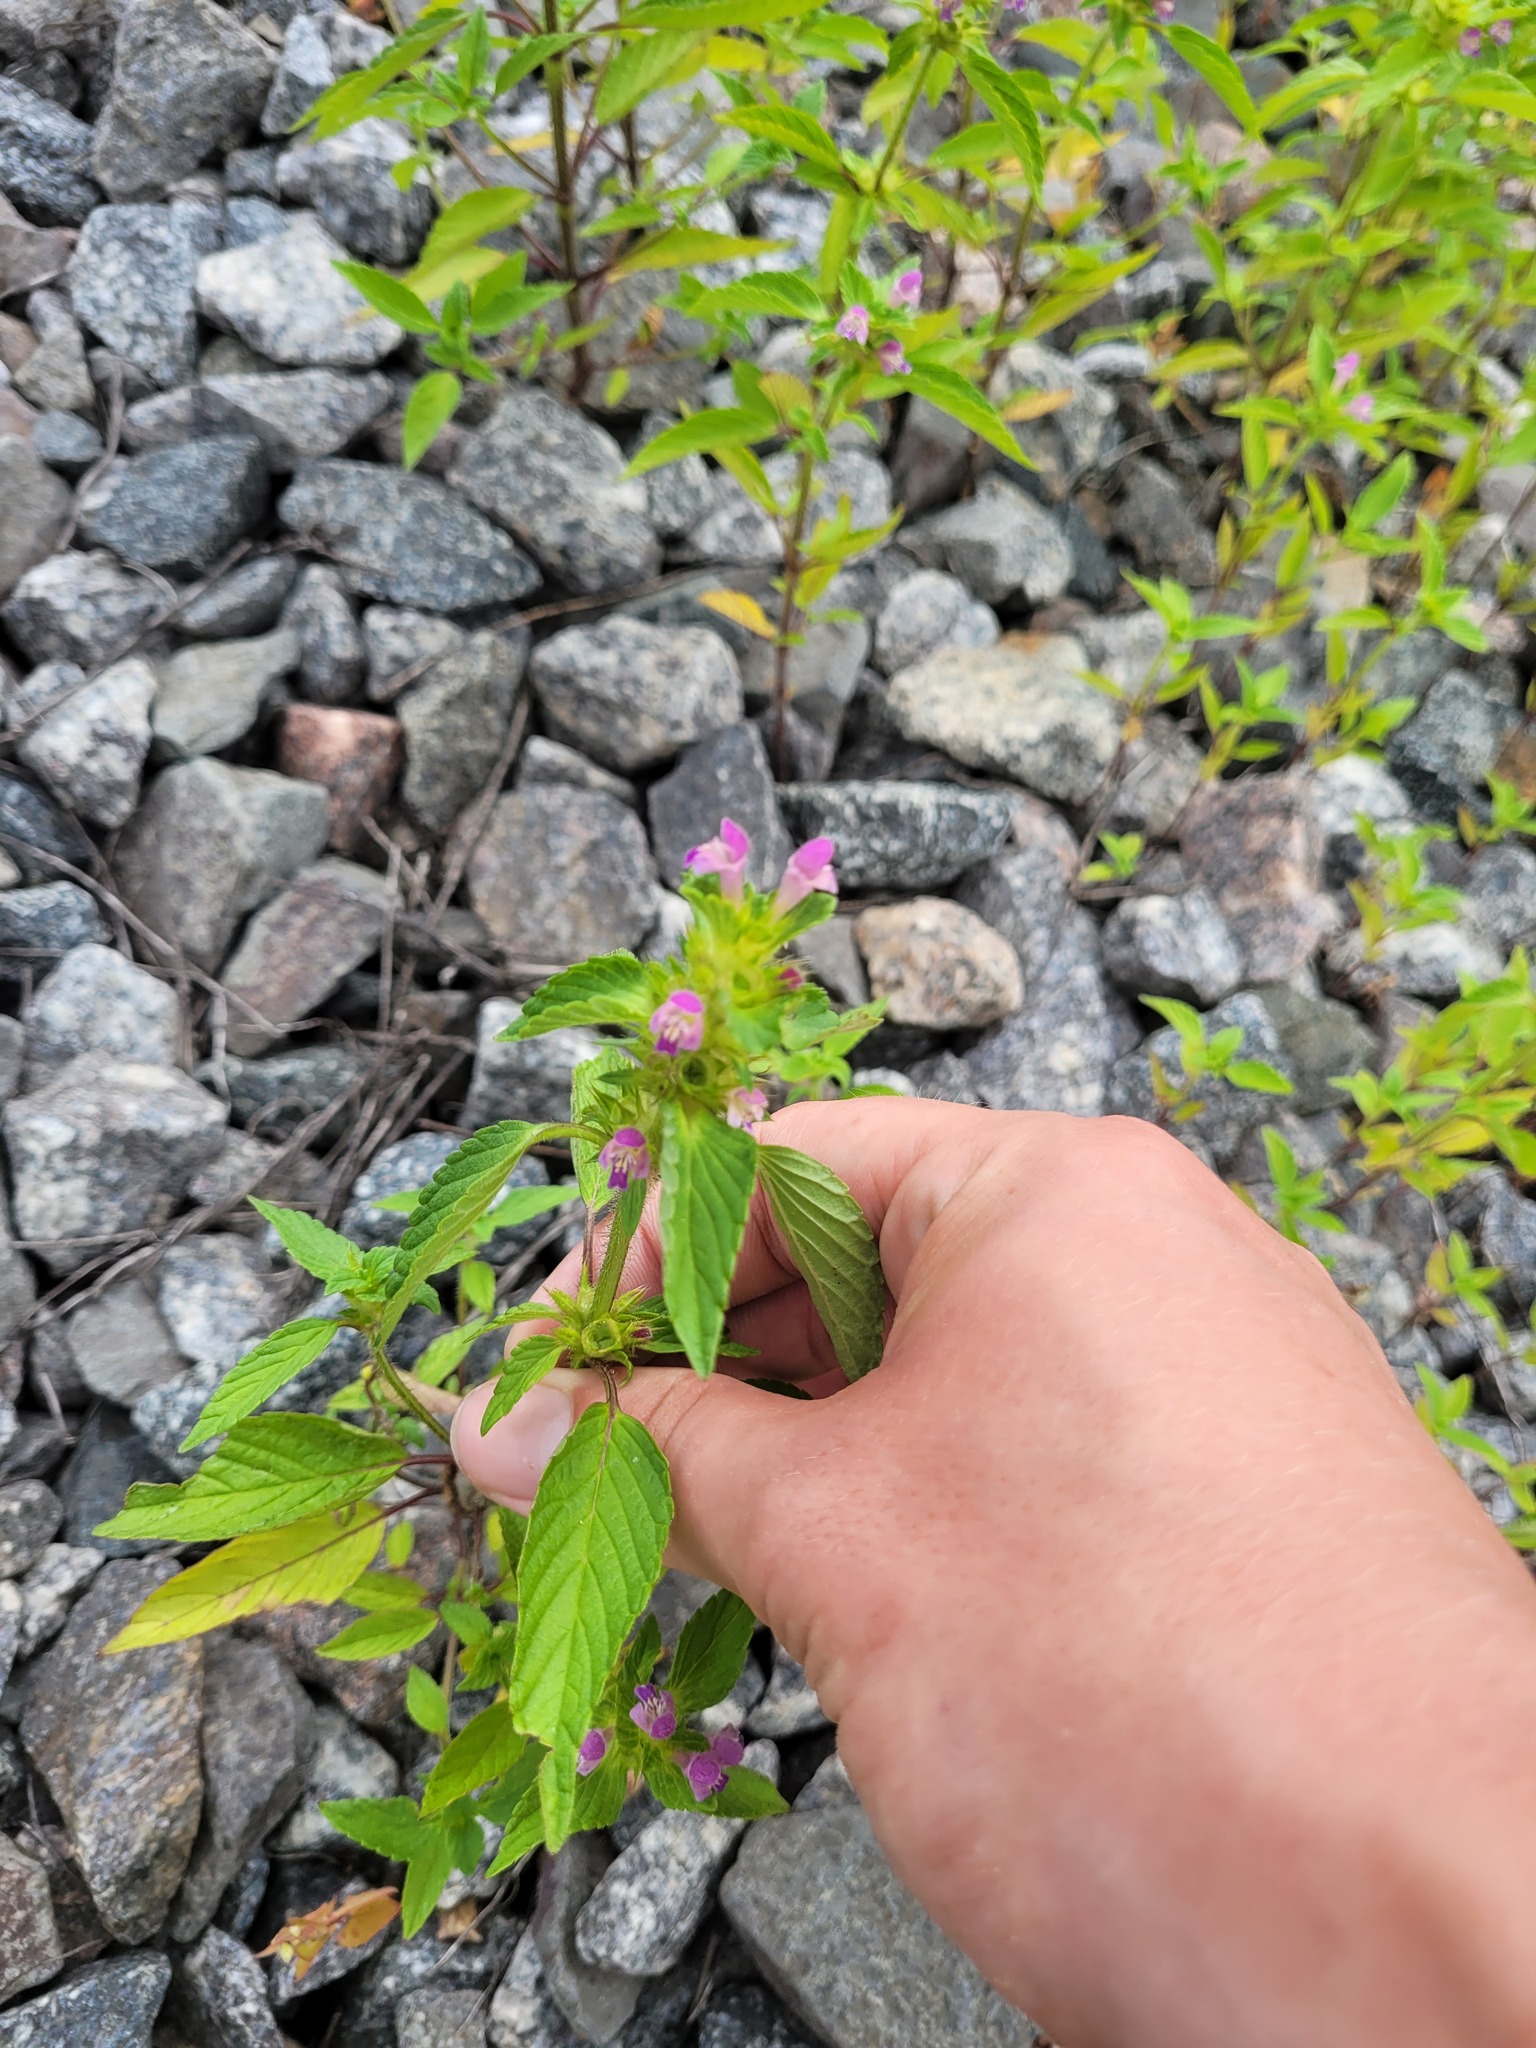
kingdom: Plantae
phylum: Tracheophyta
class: Magnoliopsida
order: Lamiales
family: Lamiaceae
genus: Galeopsis
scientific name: Galeopsis bifida
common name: Bifid hemp-nettle
